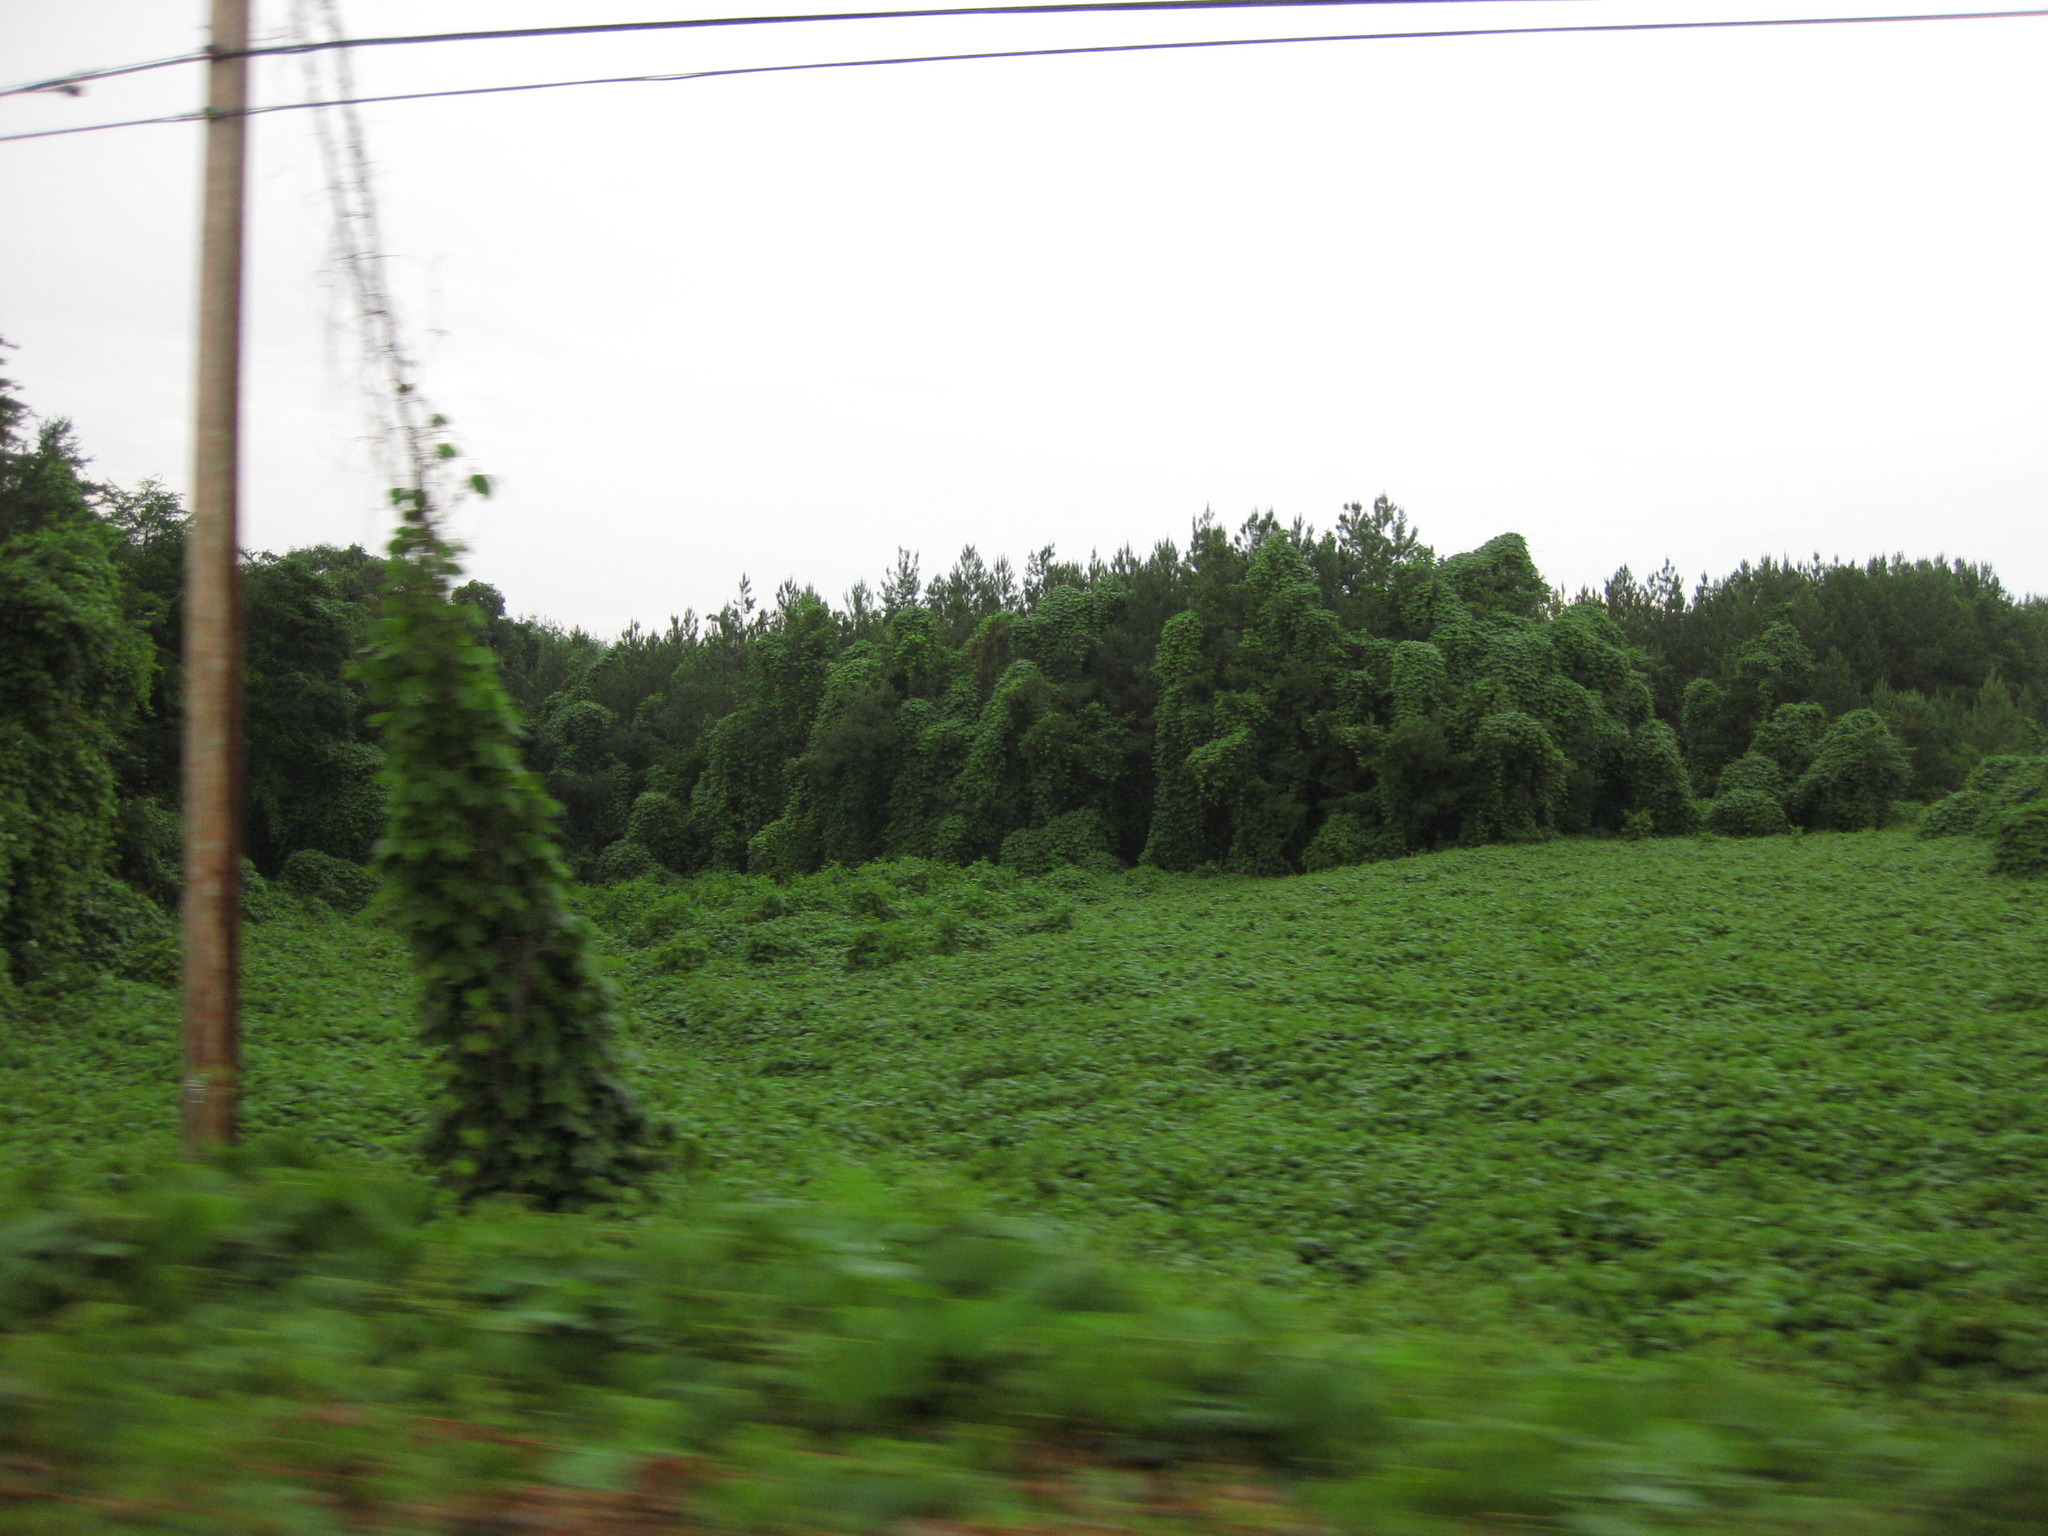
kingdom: Plantae
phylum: Tracheophyta
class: Magnoliopsida
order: Fabales
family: Fabaceae
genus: Pueraria
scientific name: Pueraria montana
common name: Kudzu
